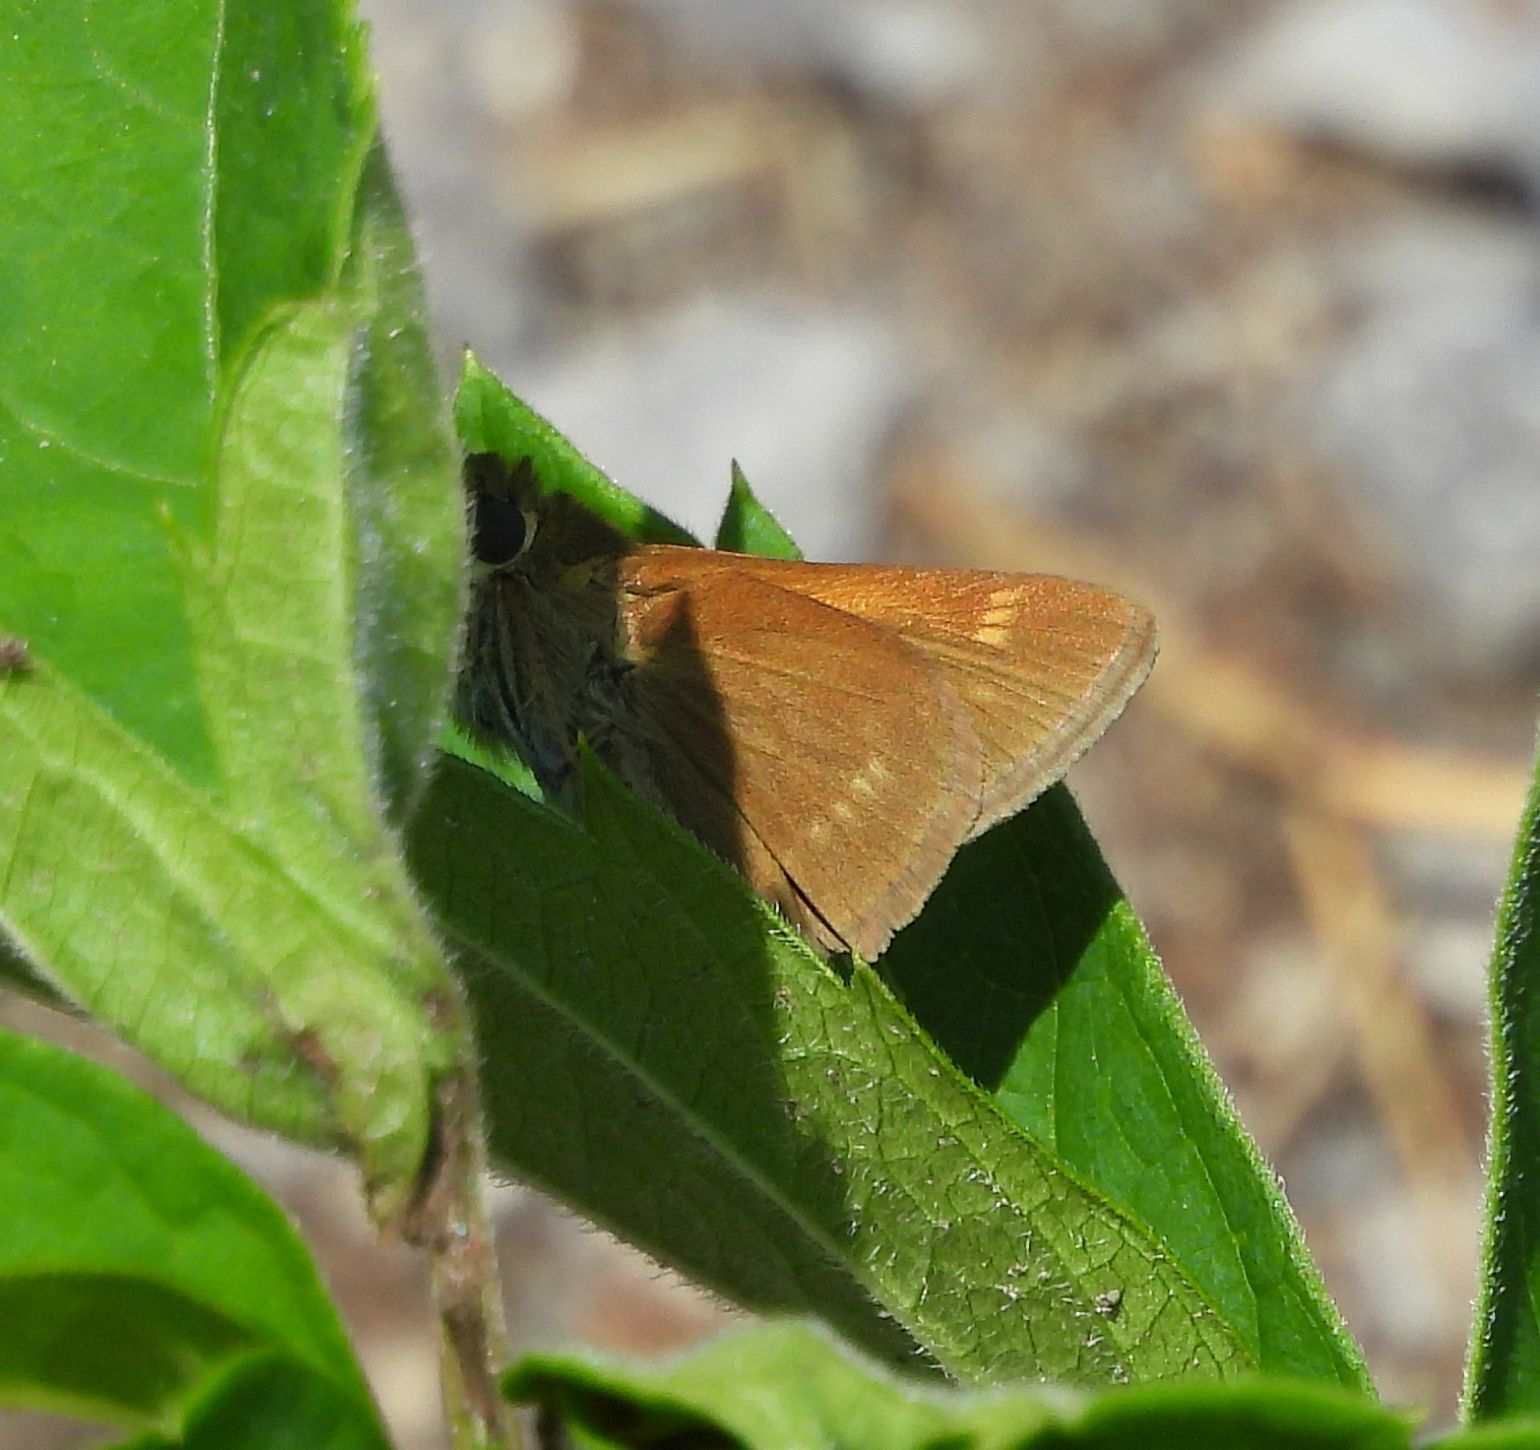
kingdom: Animalia
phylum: Arthropoda
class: Insecta
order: Lepidoptera
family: Hesperiidae
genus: Polites
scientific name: Polites origenes
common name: Crossline skipper
